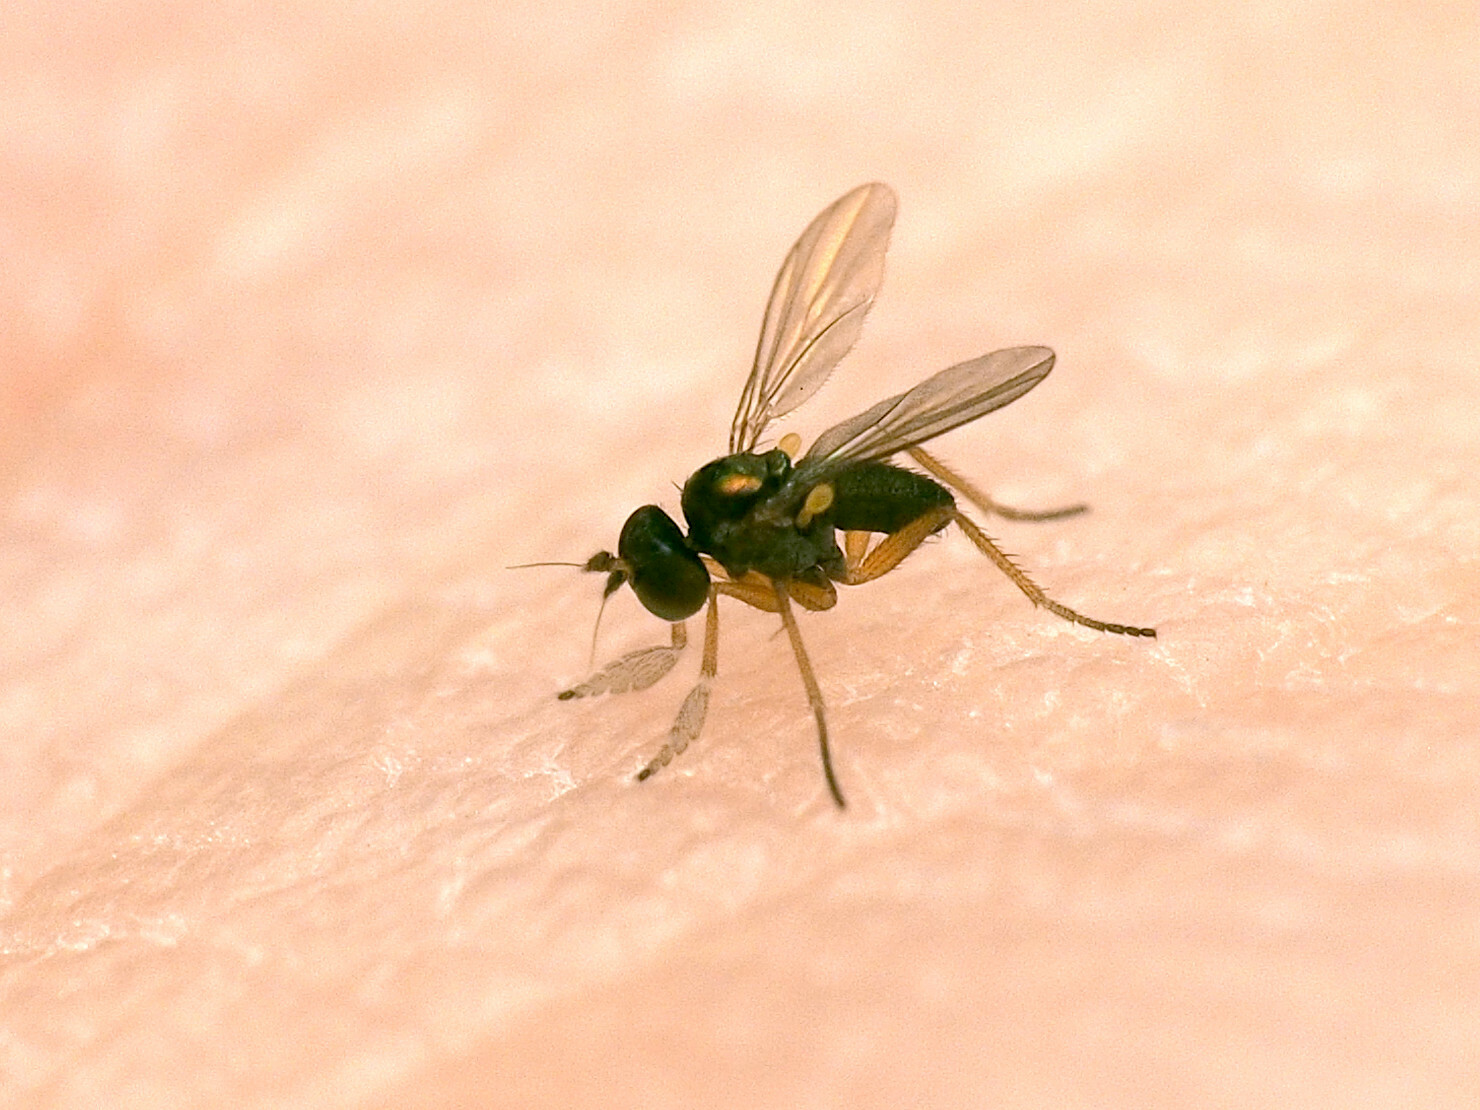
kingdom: Animalia
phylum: Arthropoda
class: Insecta
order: Diptera
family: Dolichopodidae
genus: Chrysotus
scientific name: Chrysotus tarsalis
